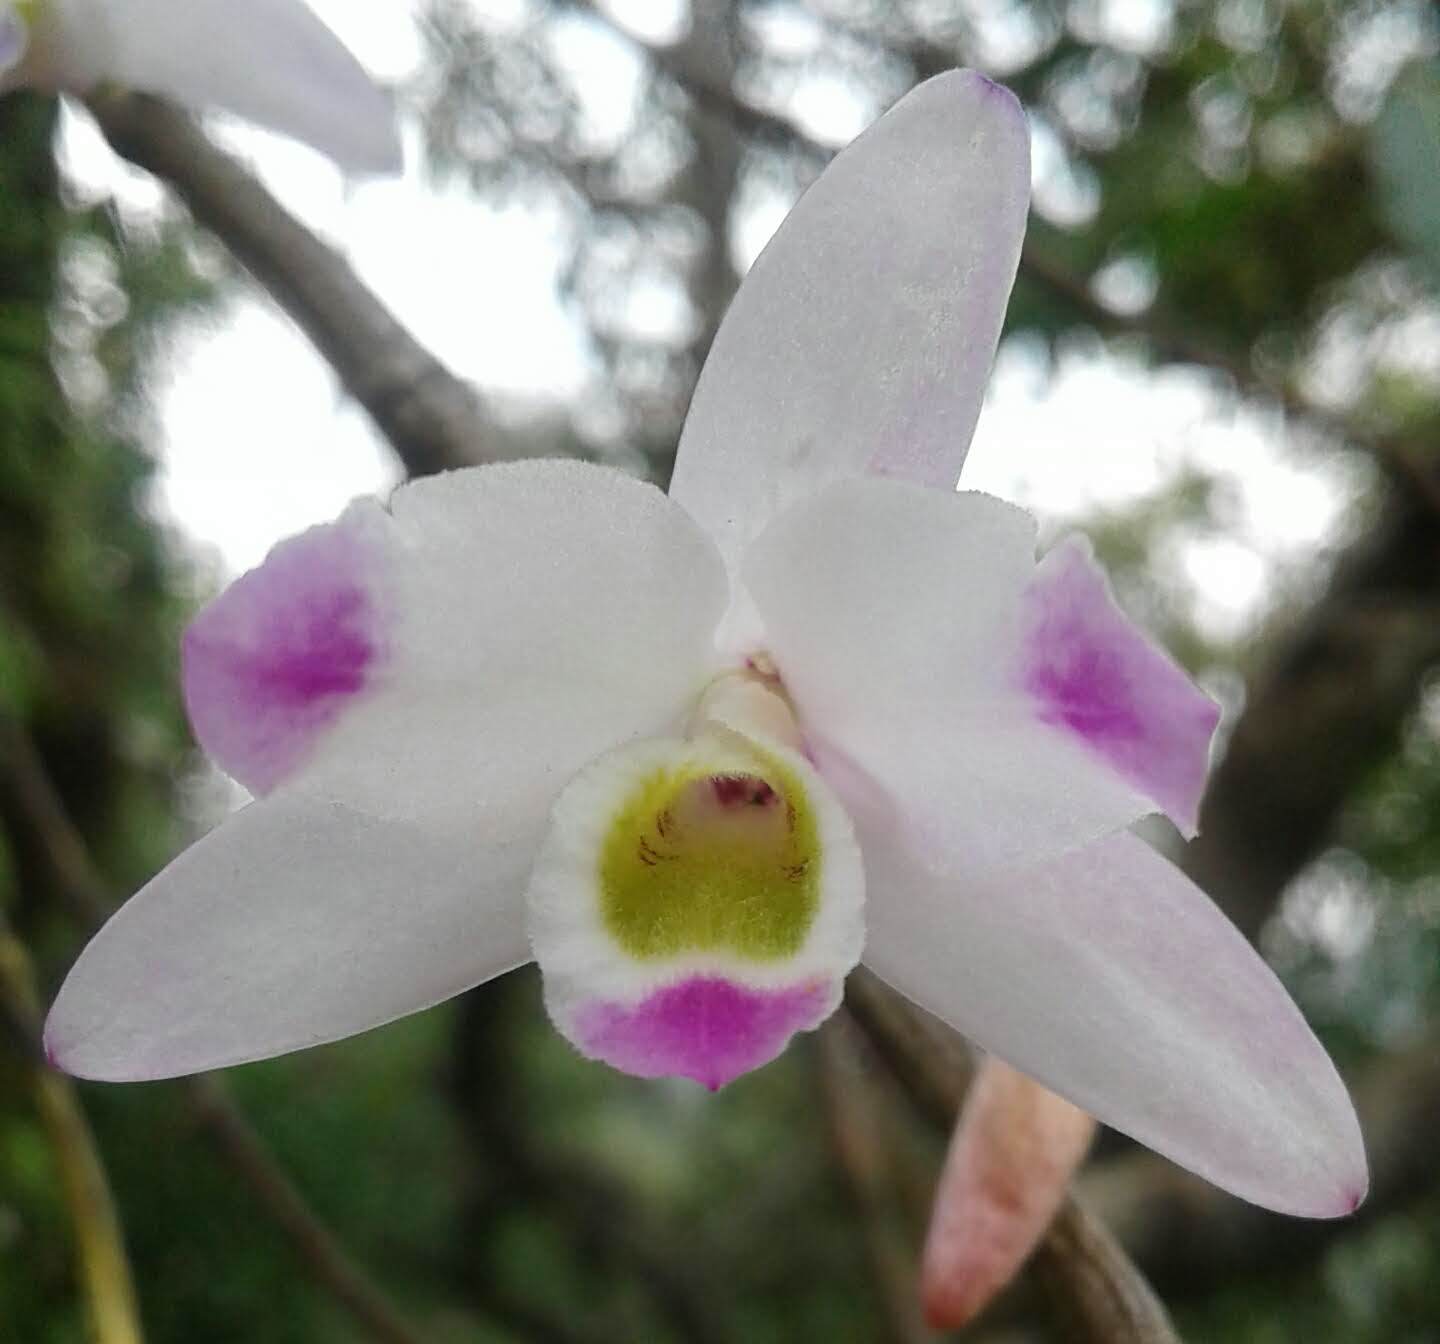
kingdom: Plantae
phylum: Tracheophyta
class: Liliopsida
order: Asparagales
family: Orchidaceae
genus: Dendrobium
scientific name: Dendrobium amoenum
